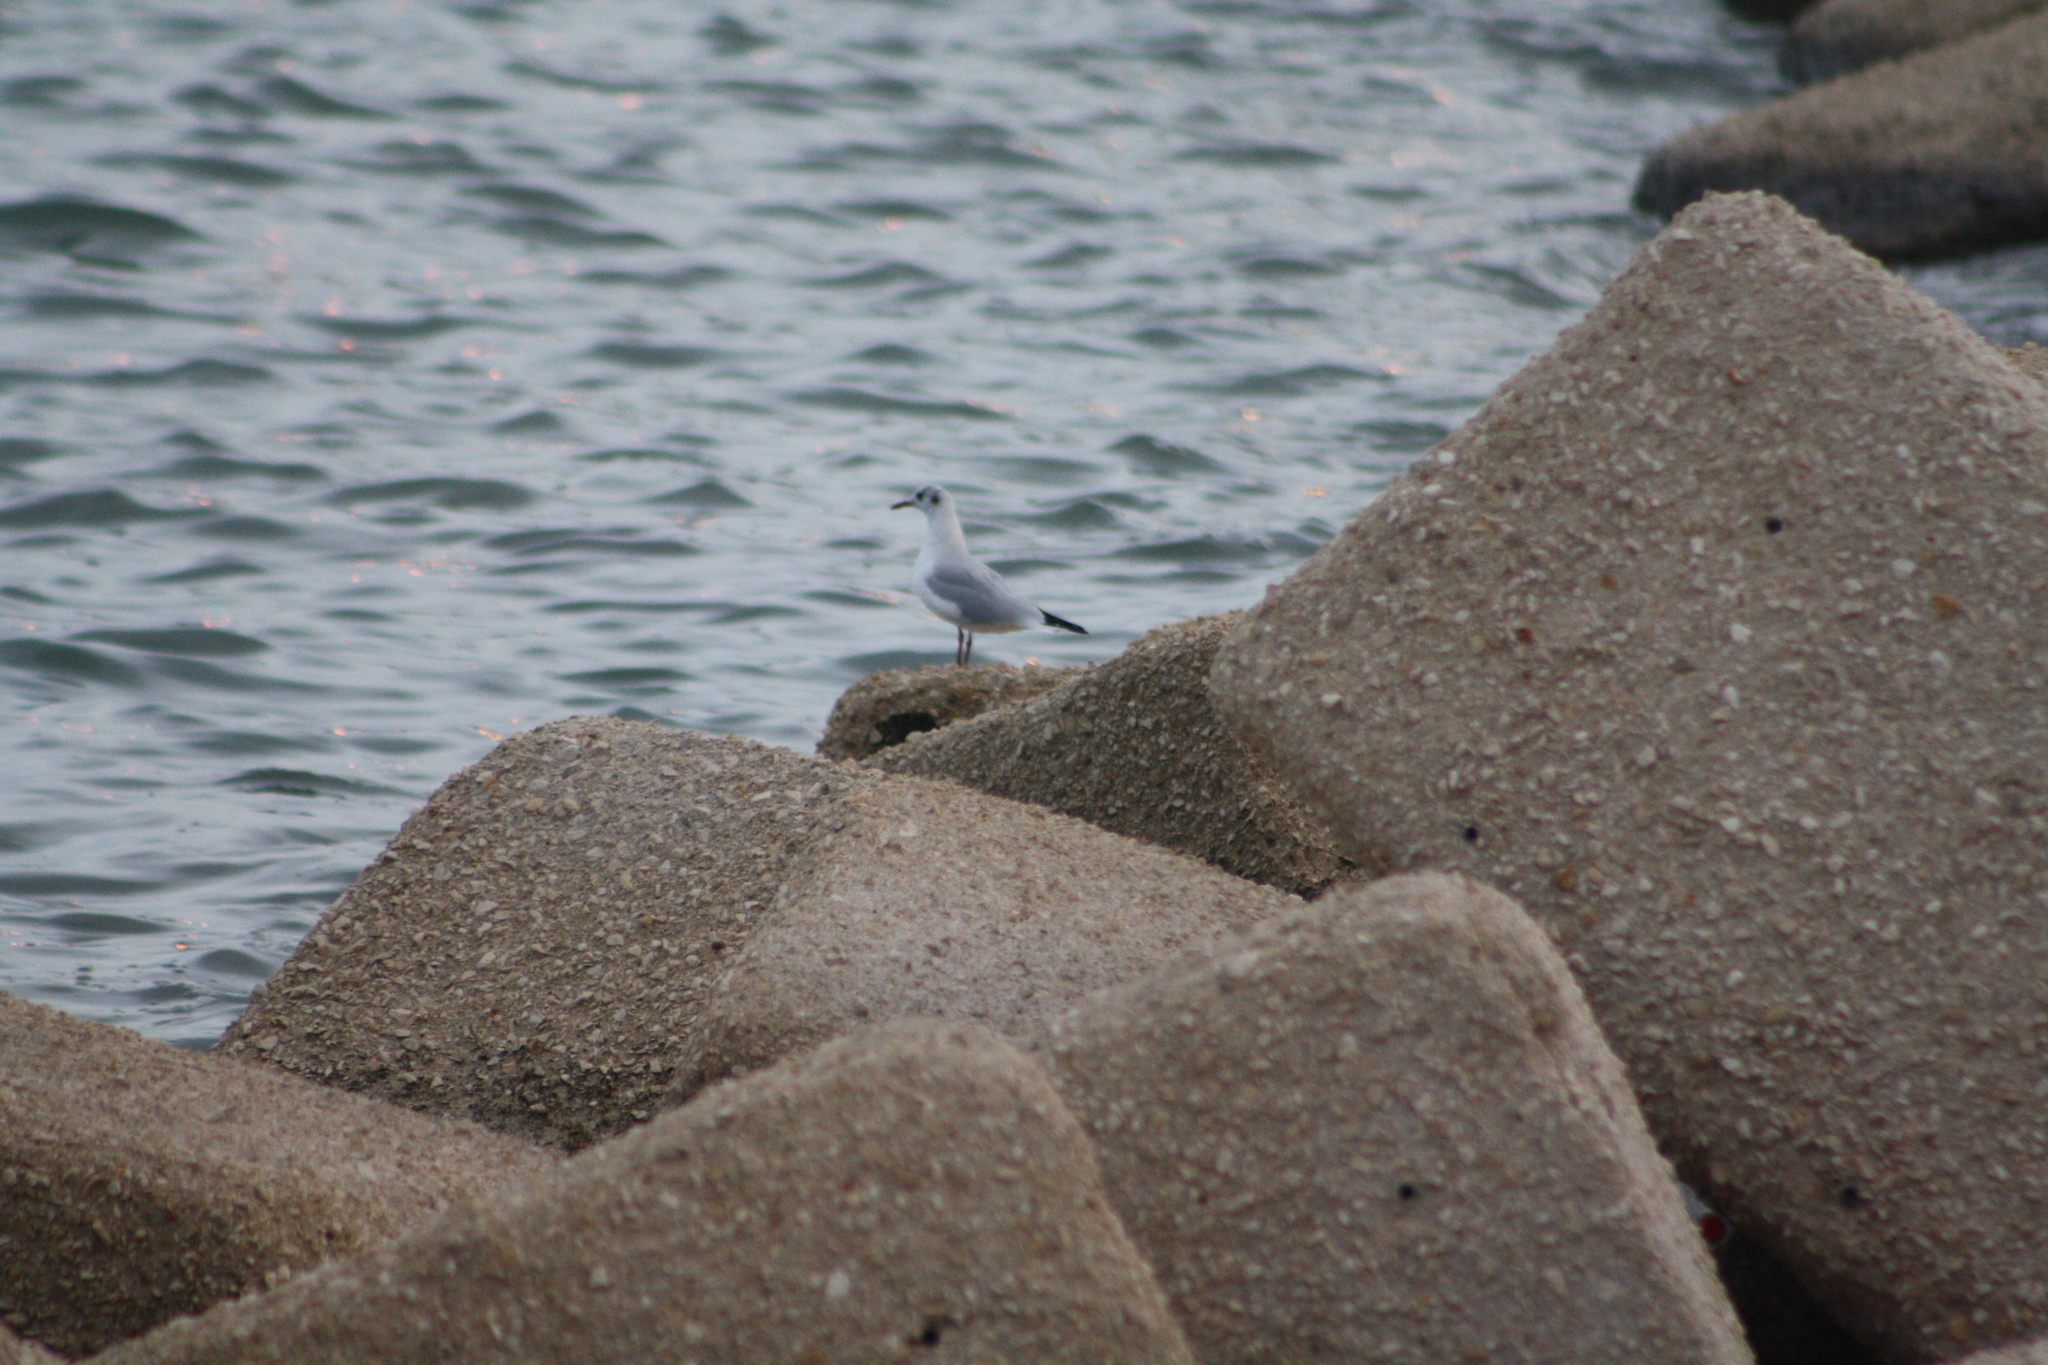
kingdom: Animalia
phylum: Chordata
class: Aves
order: Charadriiformes
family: Laridae
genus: Chroicocephalus
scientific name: Chroicocephalus ridibundus
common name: Black-headed gull
